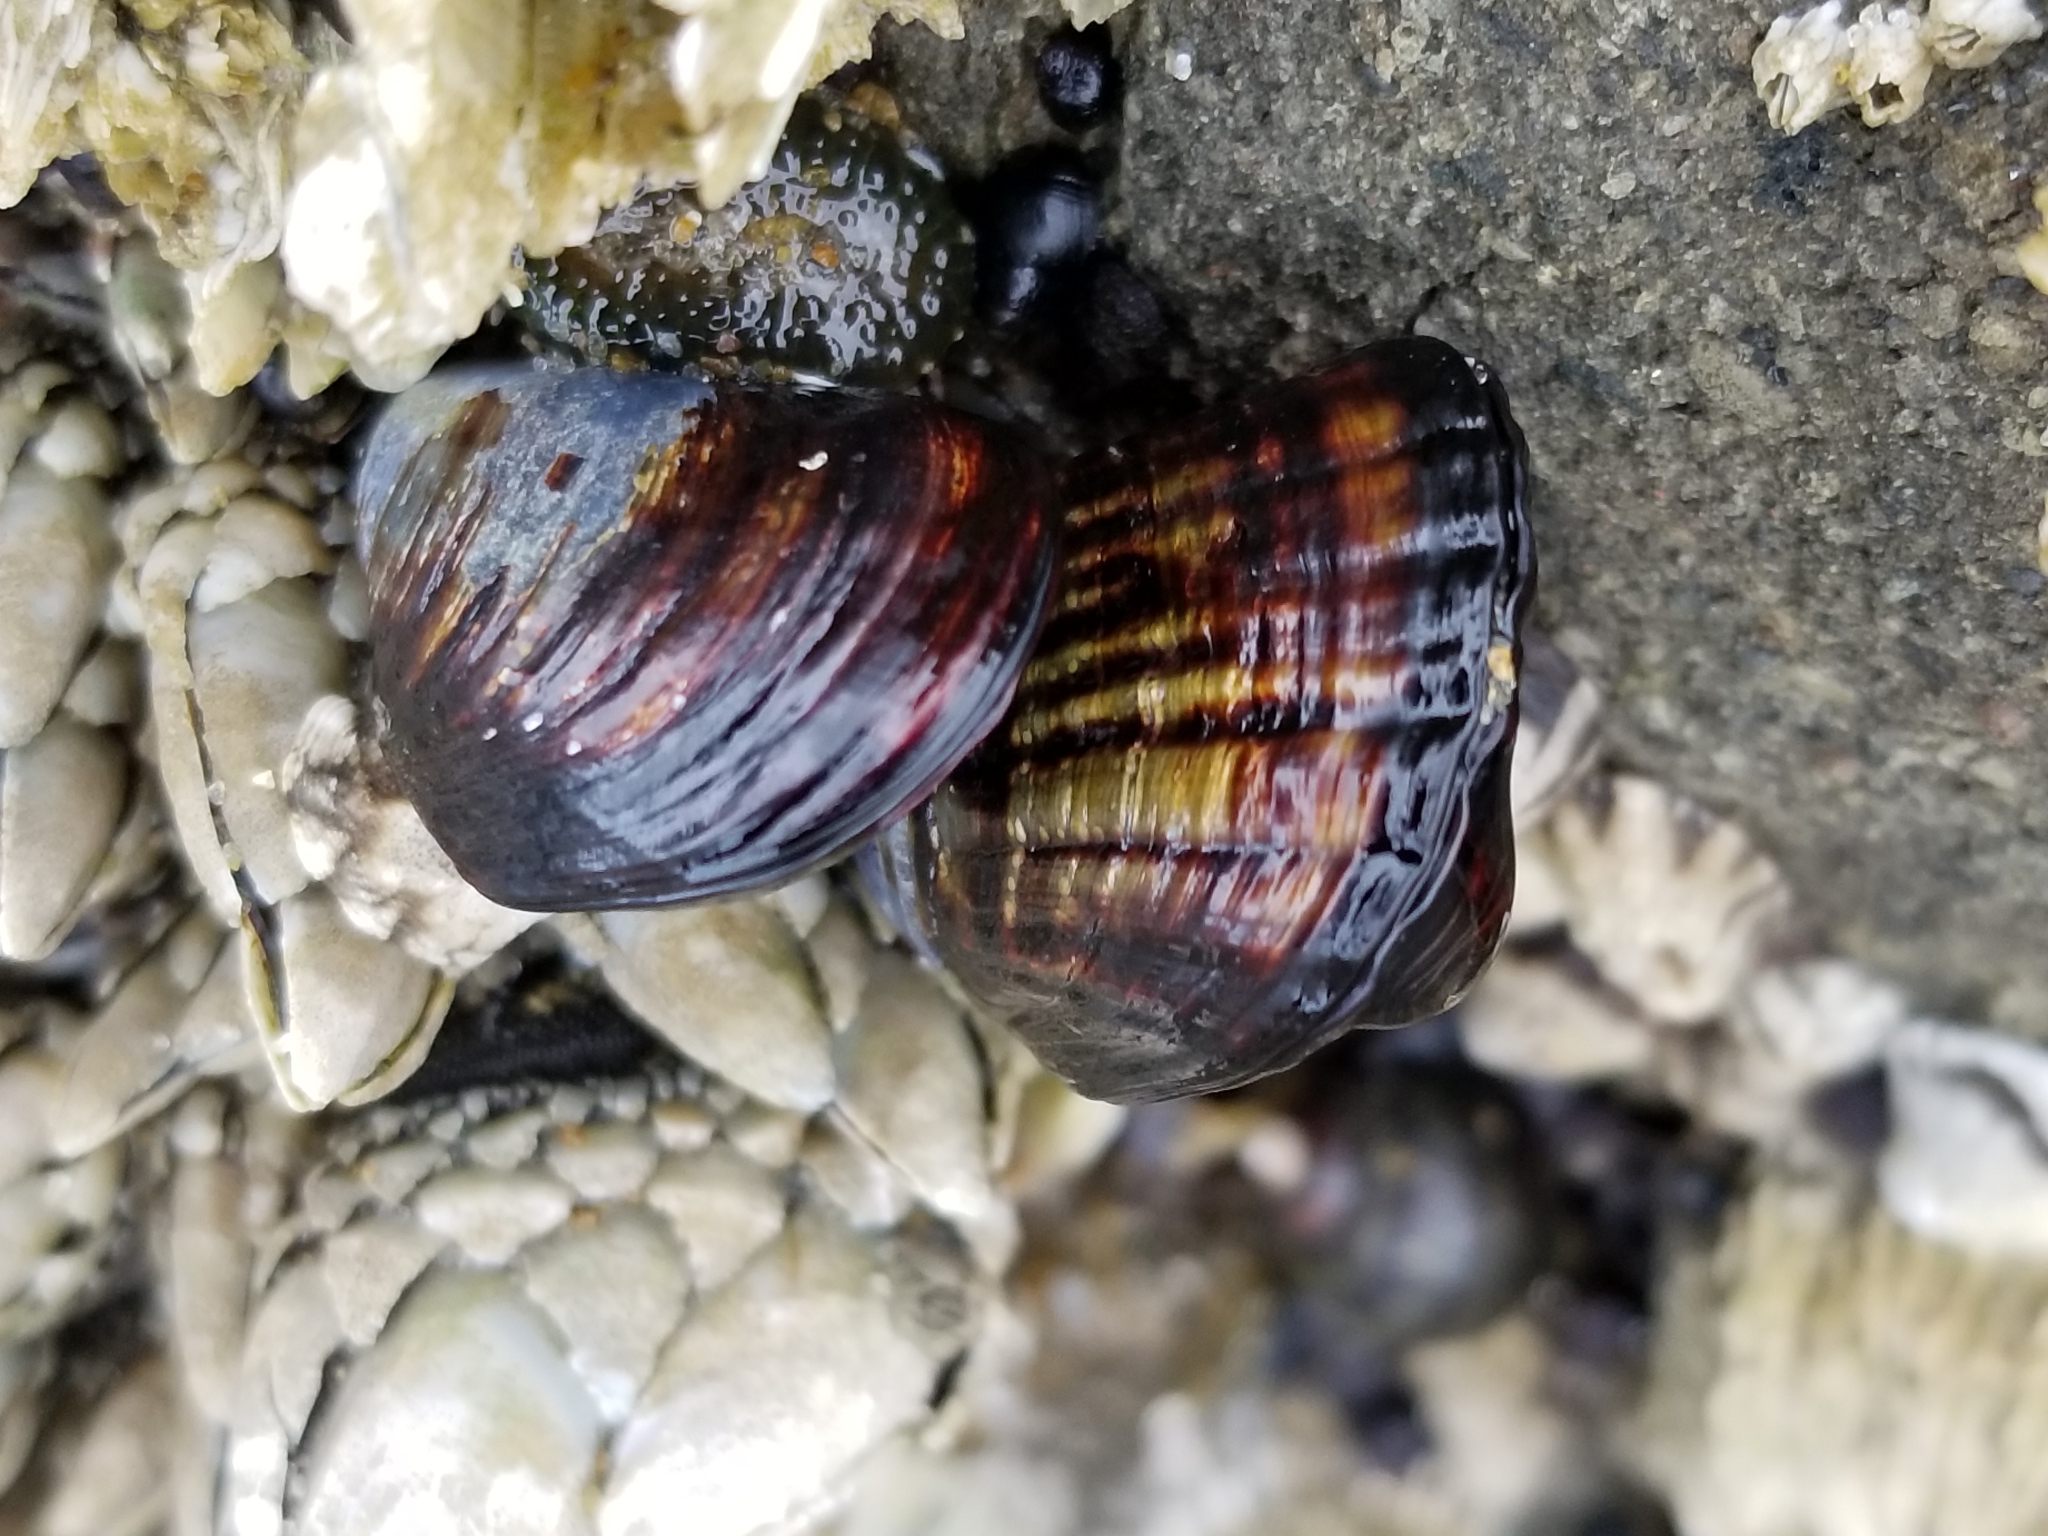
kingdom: Animalia
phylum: Mollusca
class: Bivalvia
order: Mytilida
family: Mytilidae
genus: Mytilus
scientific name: Mytilus californianus
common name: California mussel
